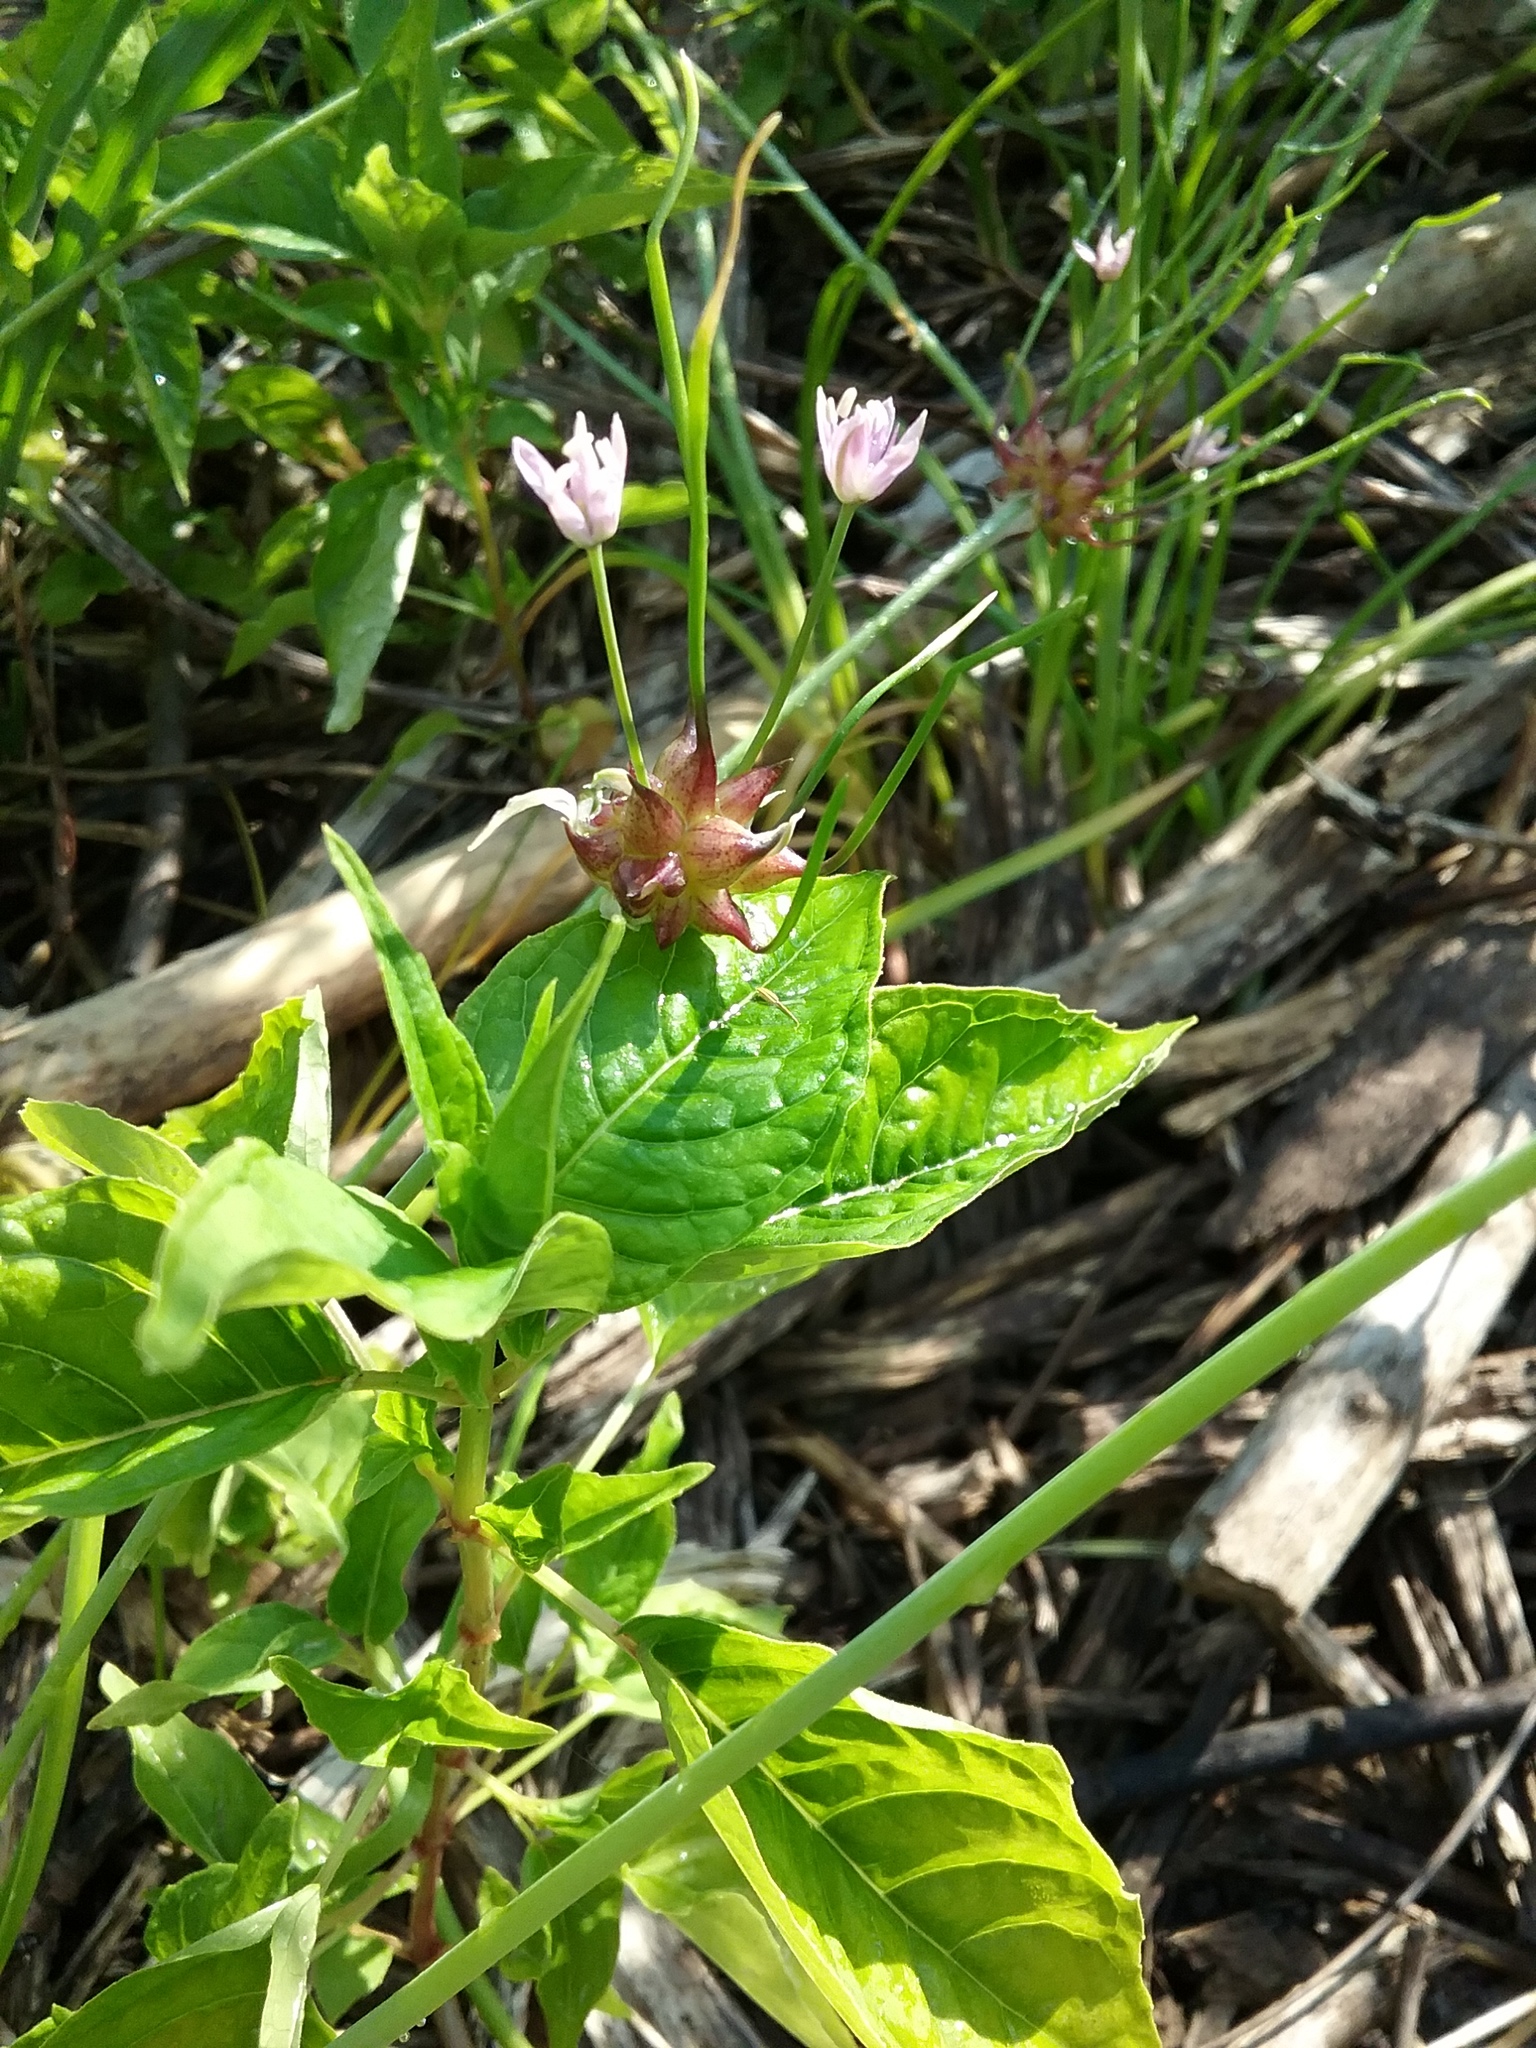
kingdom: Plantae
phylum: Tracheophyta
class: Liliopsida
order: Asparagales
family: Amaryllidaceae
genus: Allium
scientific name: Allium canadense
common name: Meadow garlic
